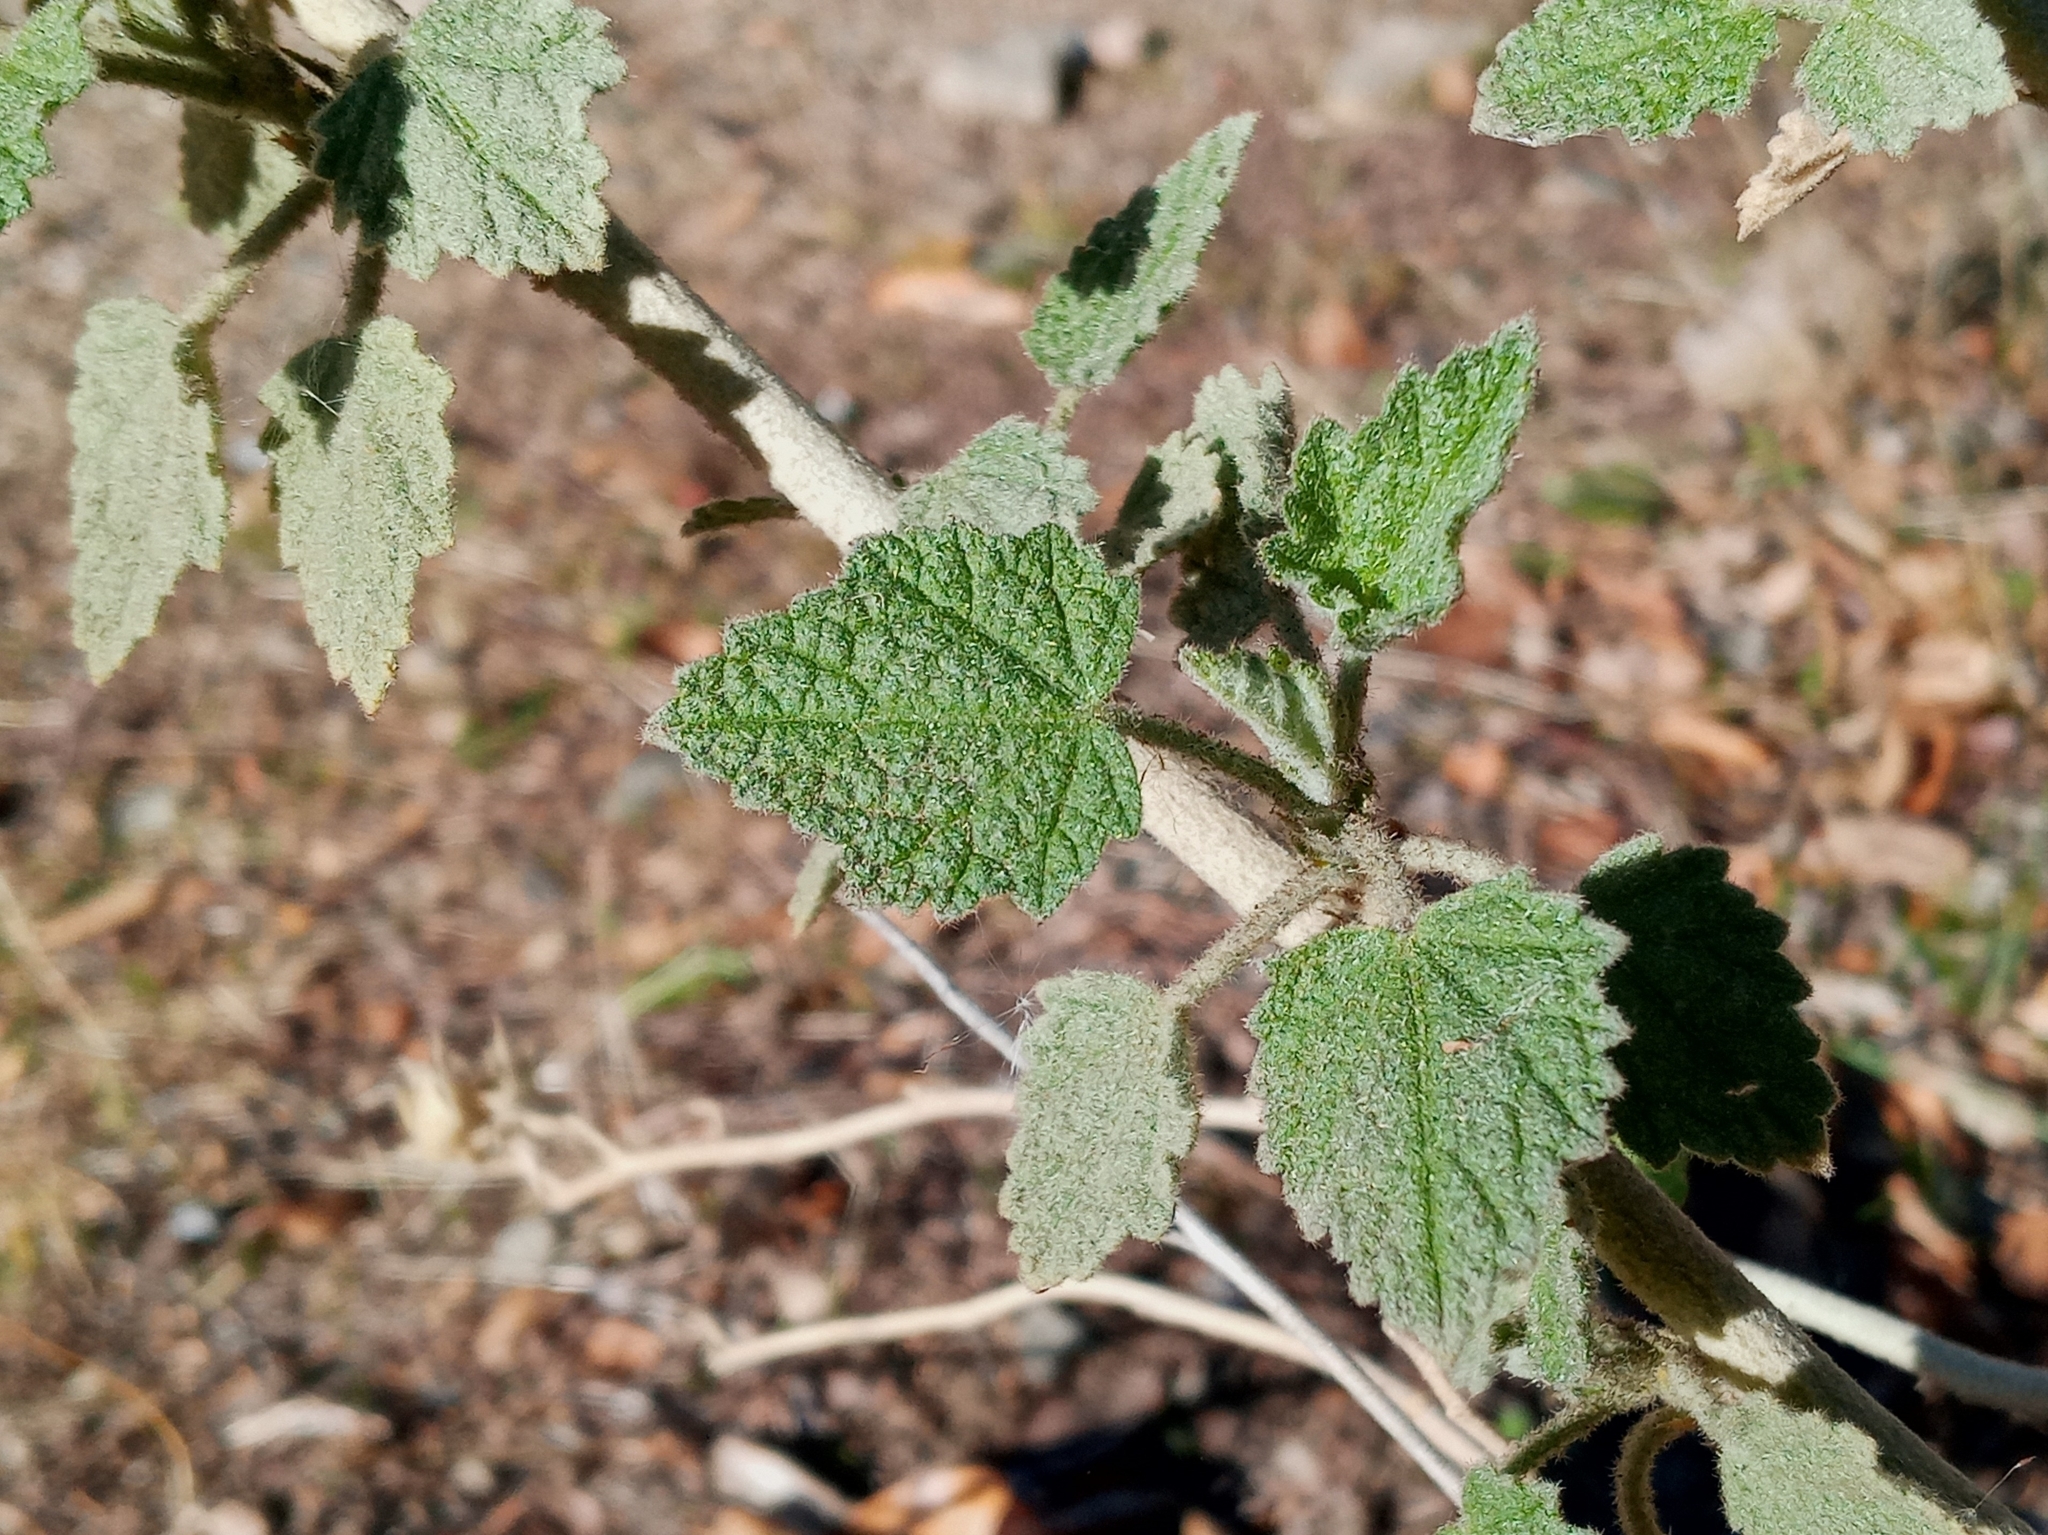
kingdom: Plantae
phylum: Tracheophyta
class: Magnoliopsida
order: Malvales
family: Malvaceae
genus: Malacothamnus
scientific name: Malacothamnus marrubioides
